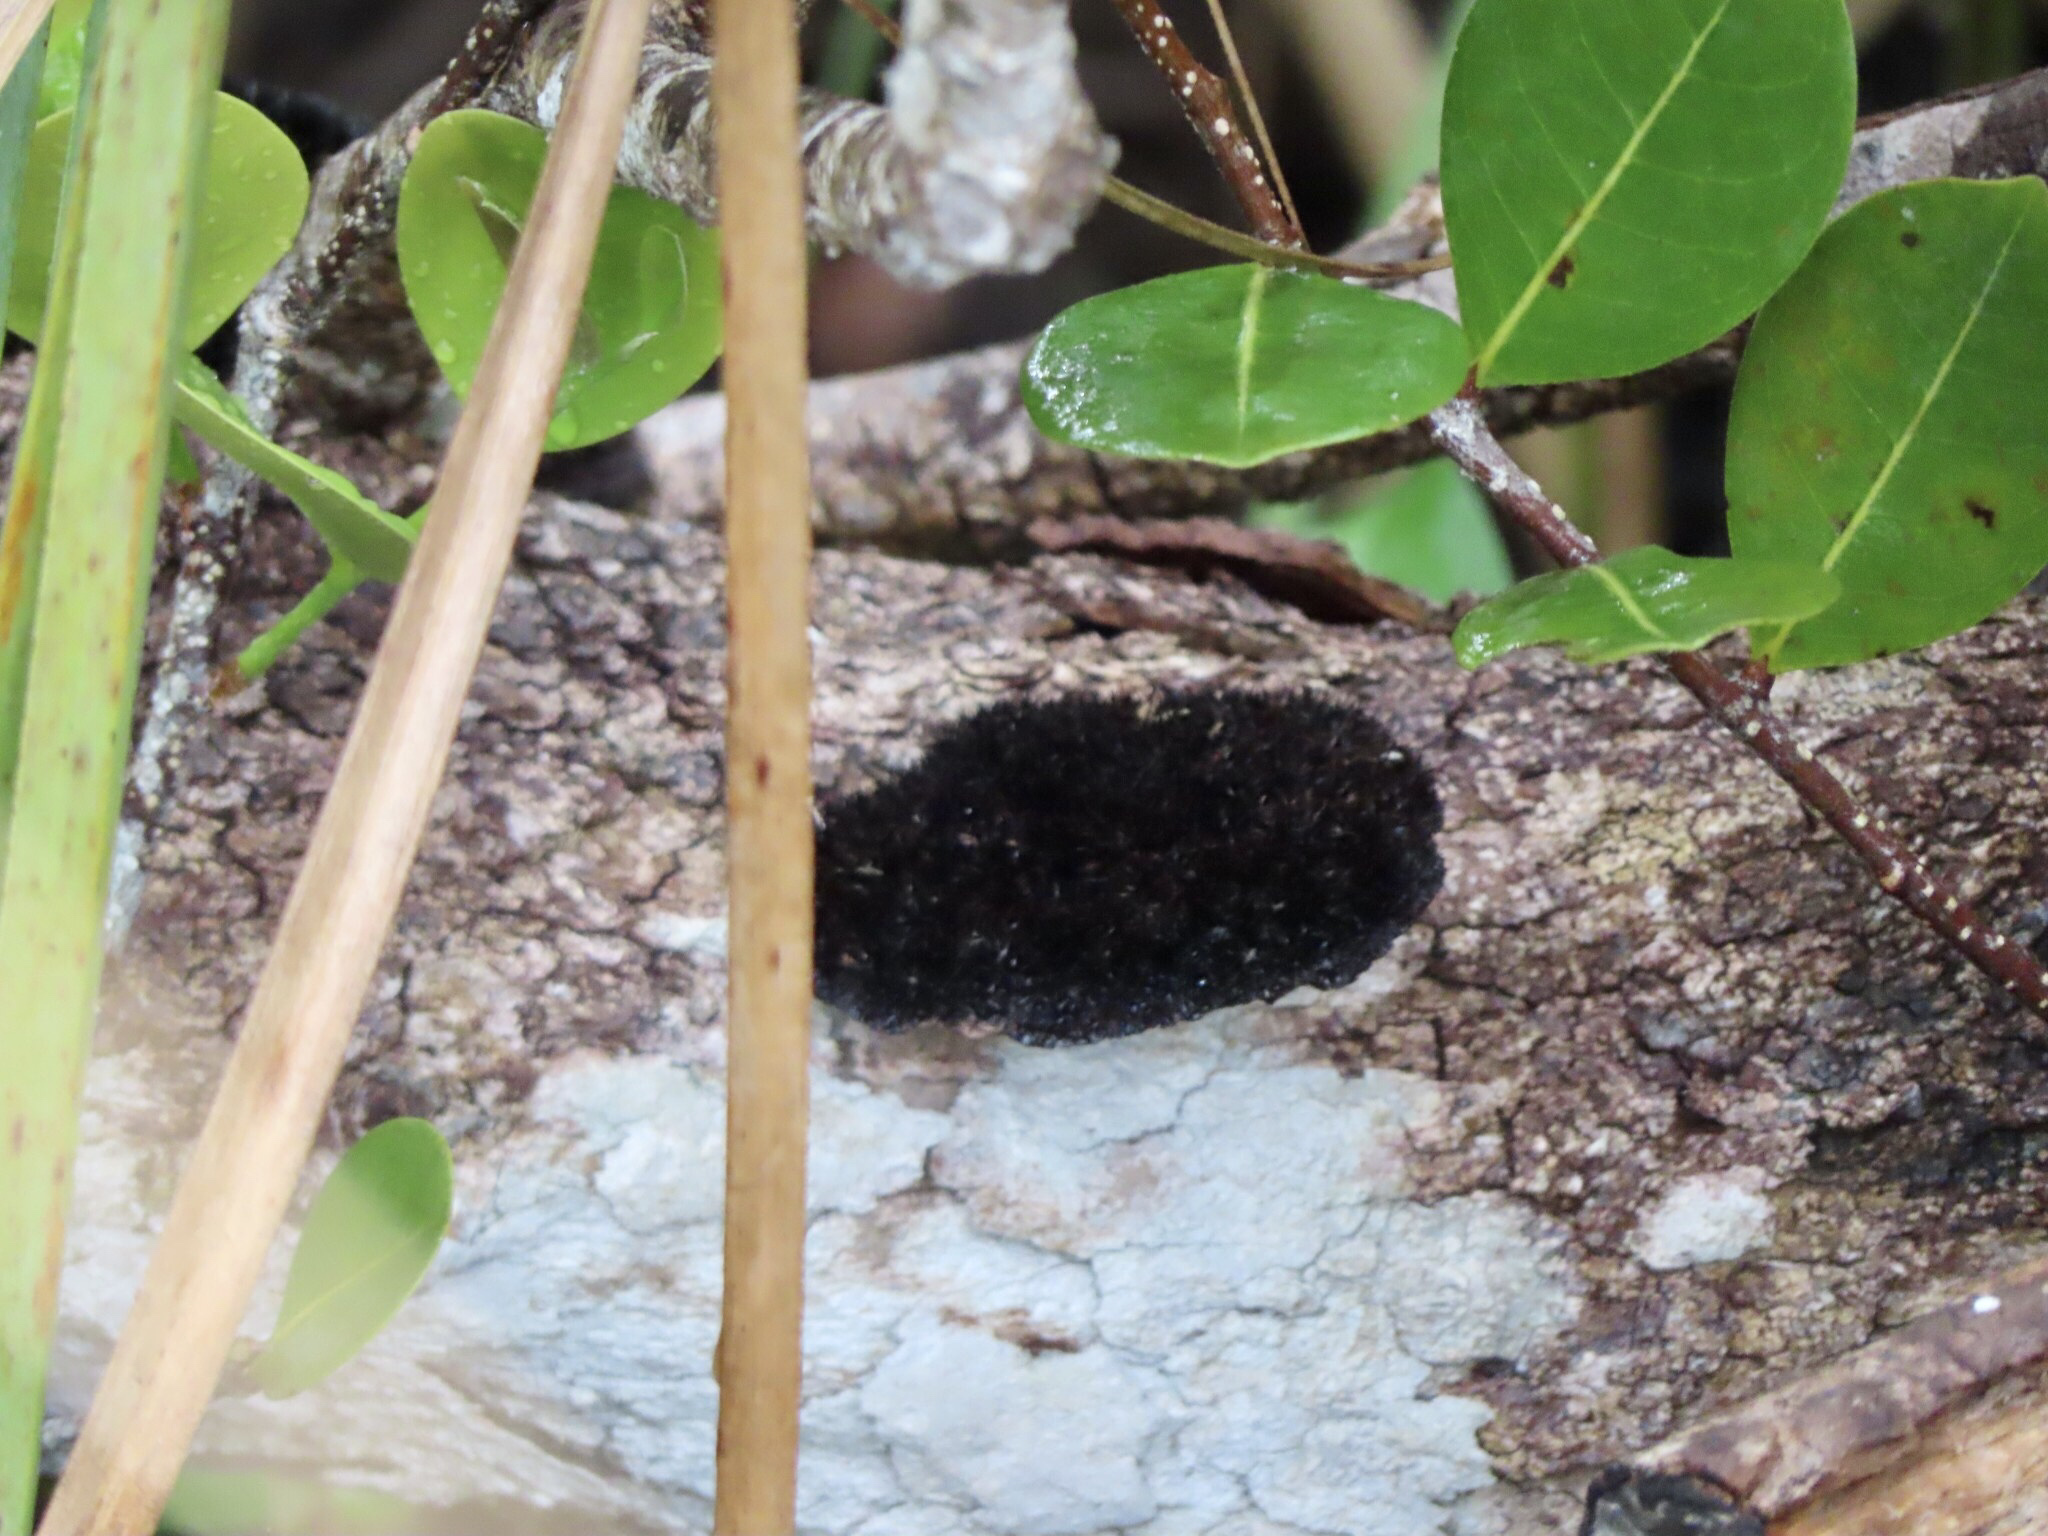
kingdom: Fungi
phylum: Basidiomycota
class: Agaricomycetes
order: Polyporales
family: Cerrenaceae
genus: Cerrena
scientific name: Cerrena hydnoides
